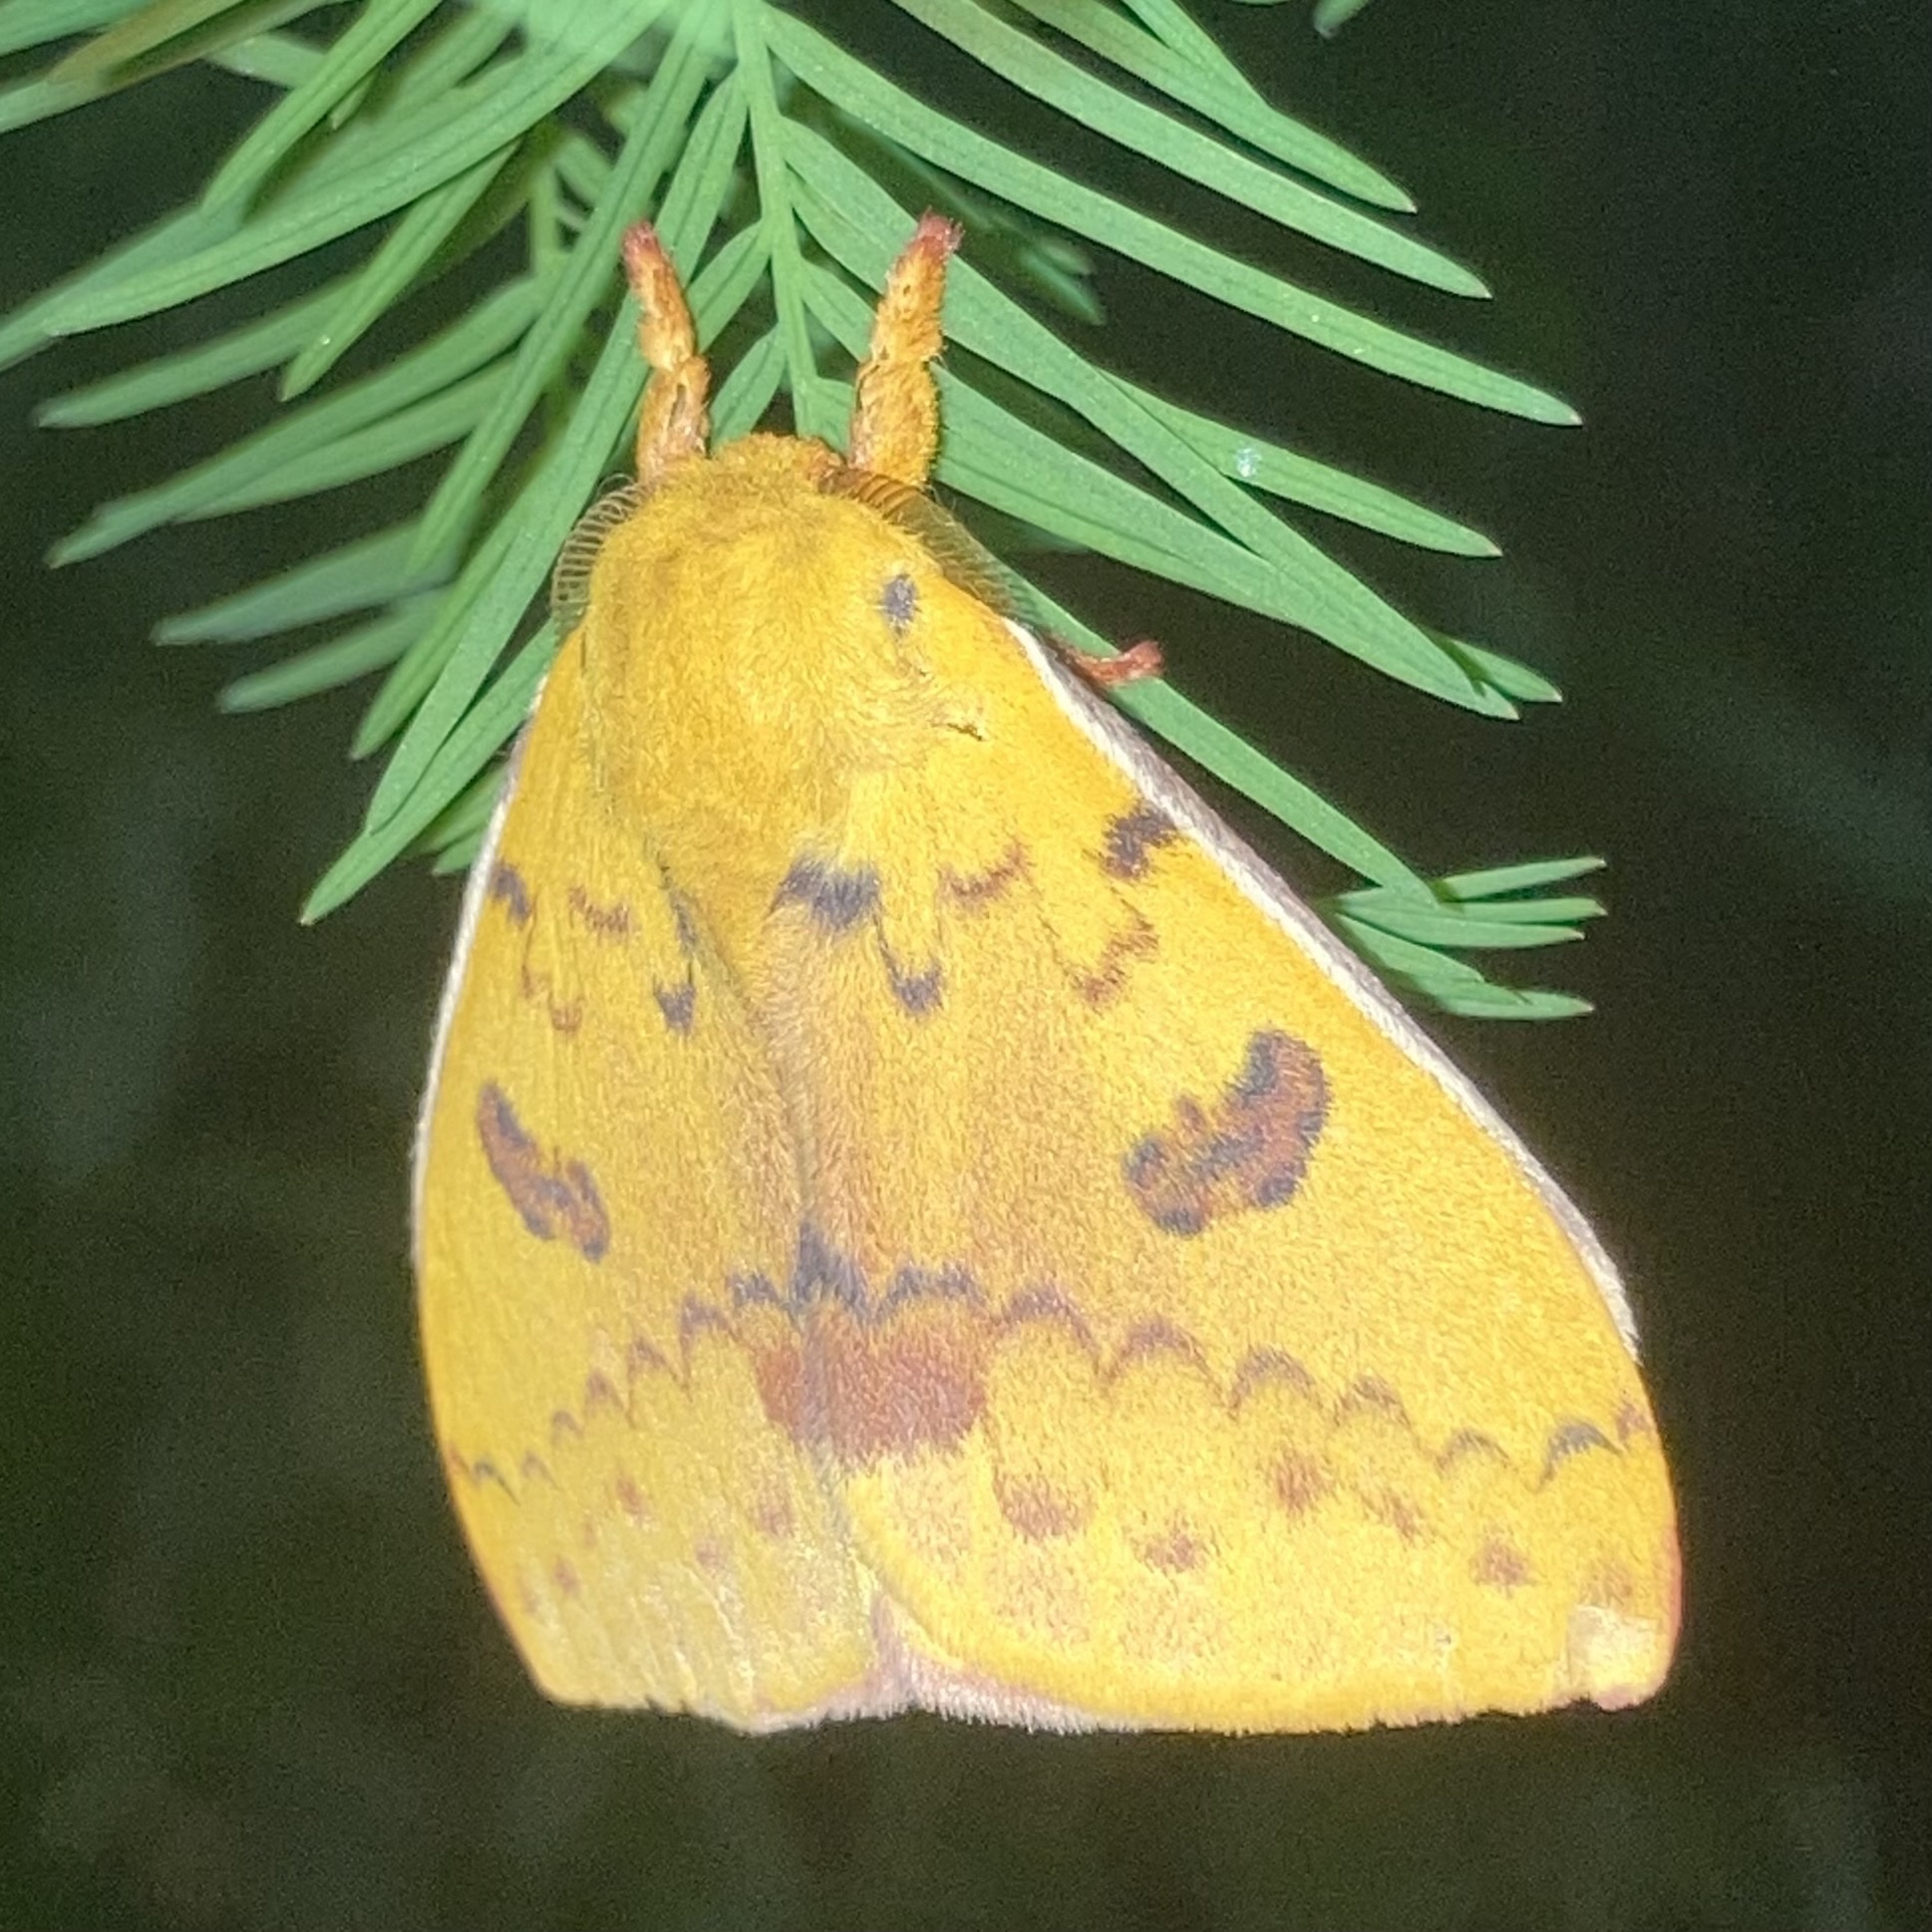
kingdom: Animalia
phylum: Arthropoda
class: Insecta
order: Lepidoptera
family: Saturniidae
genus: Automeris
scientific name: Automeris io
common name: Io moth
